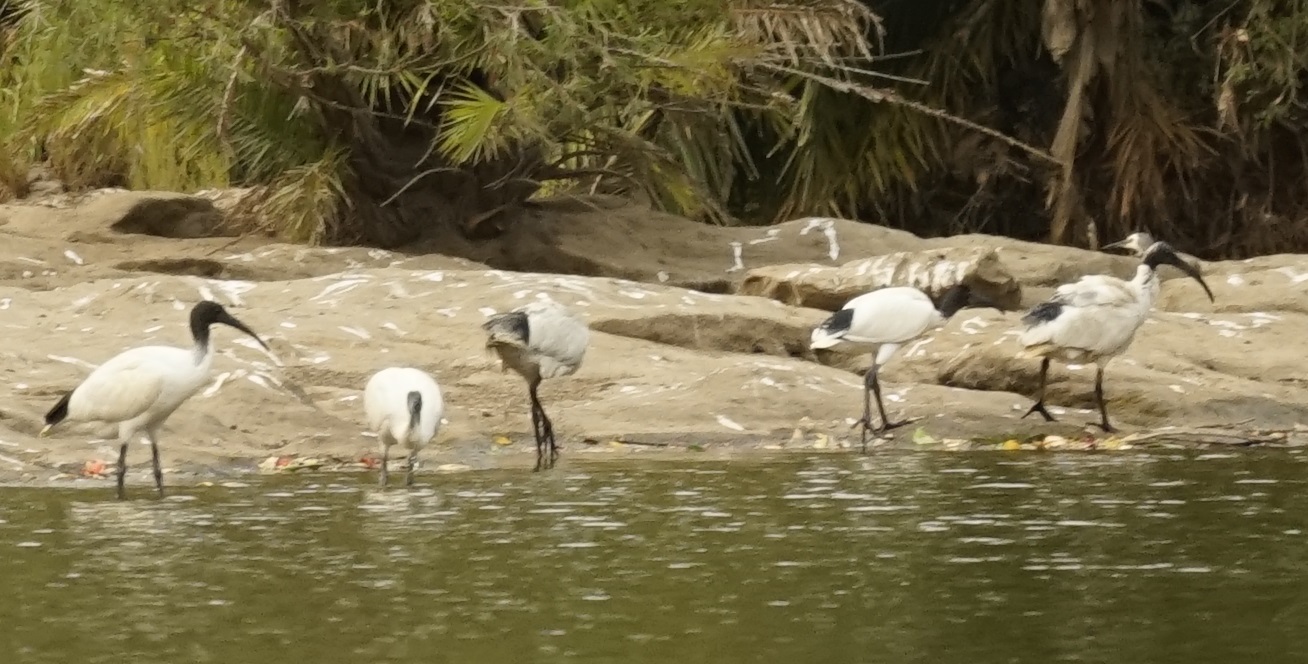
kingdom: Animalia
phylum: Chordata
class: Aves
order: Pelecaniformes
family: Threskiornithidae
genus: Threskiornis
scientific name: Threskiornis molucca
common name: Australian white ibis
